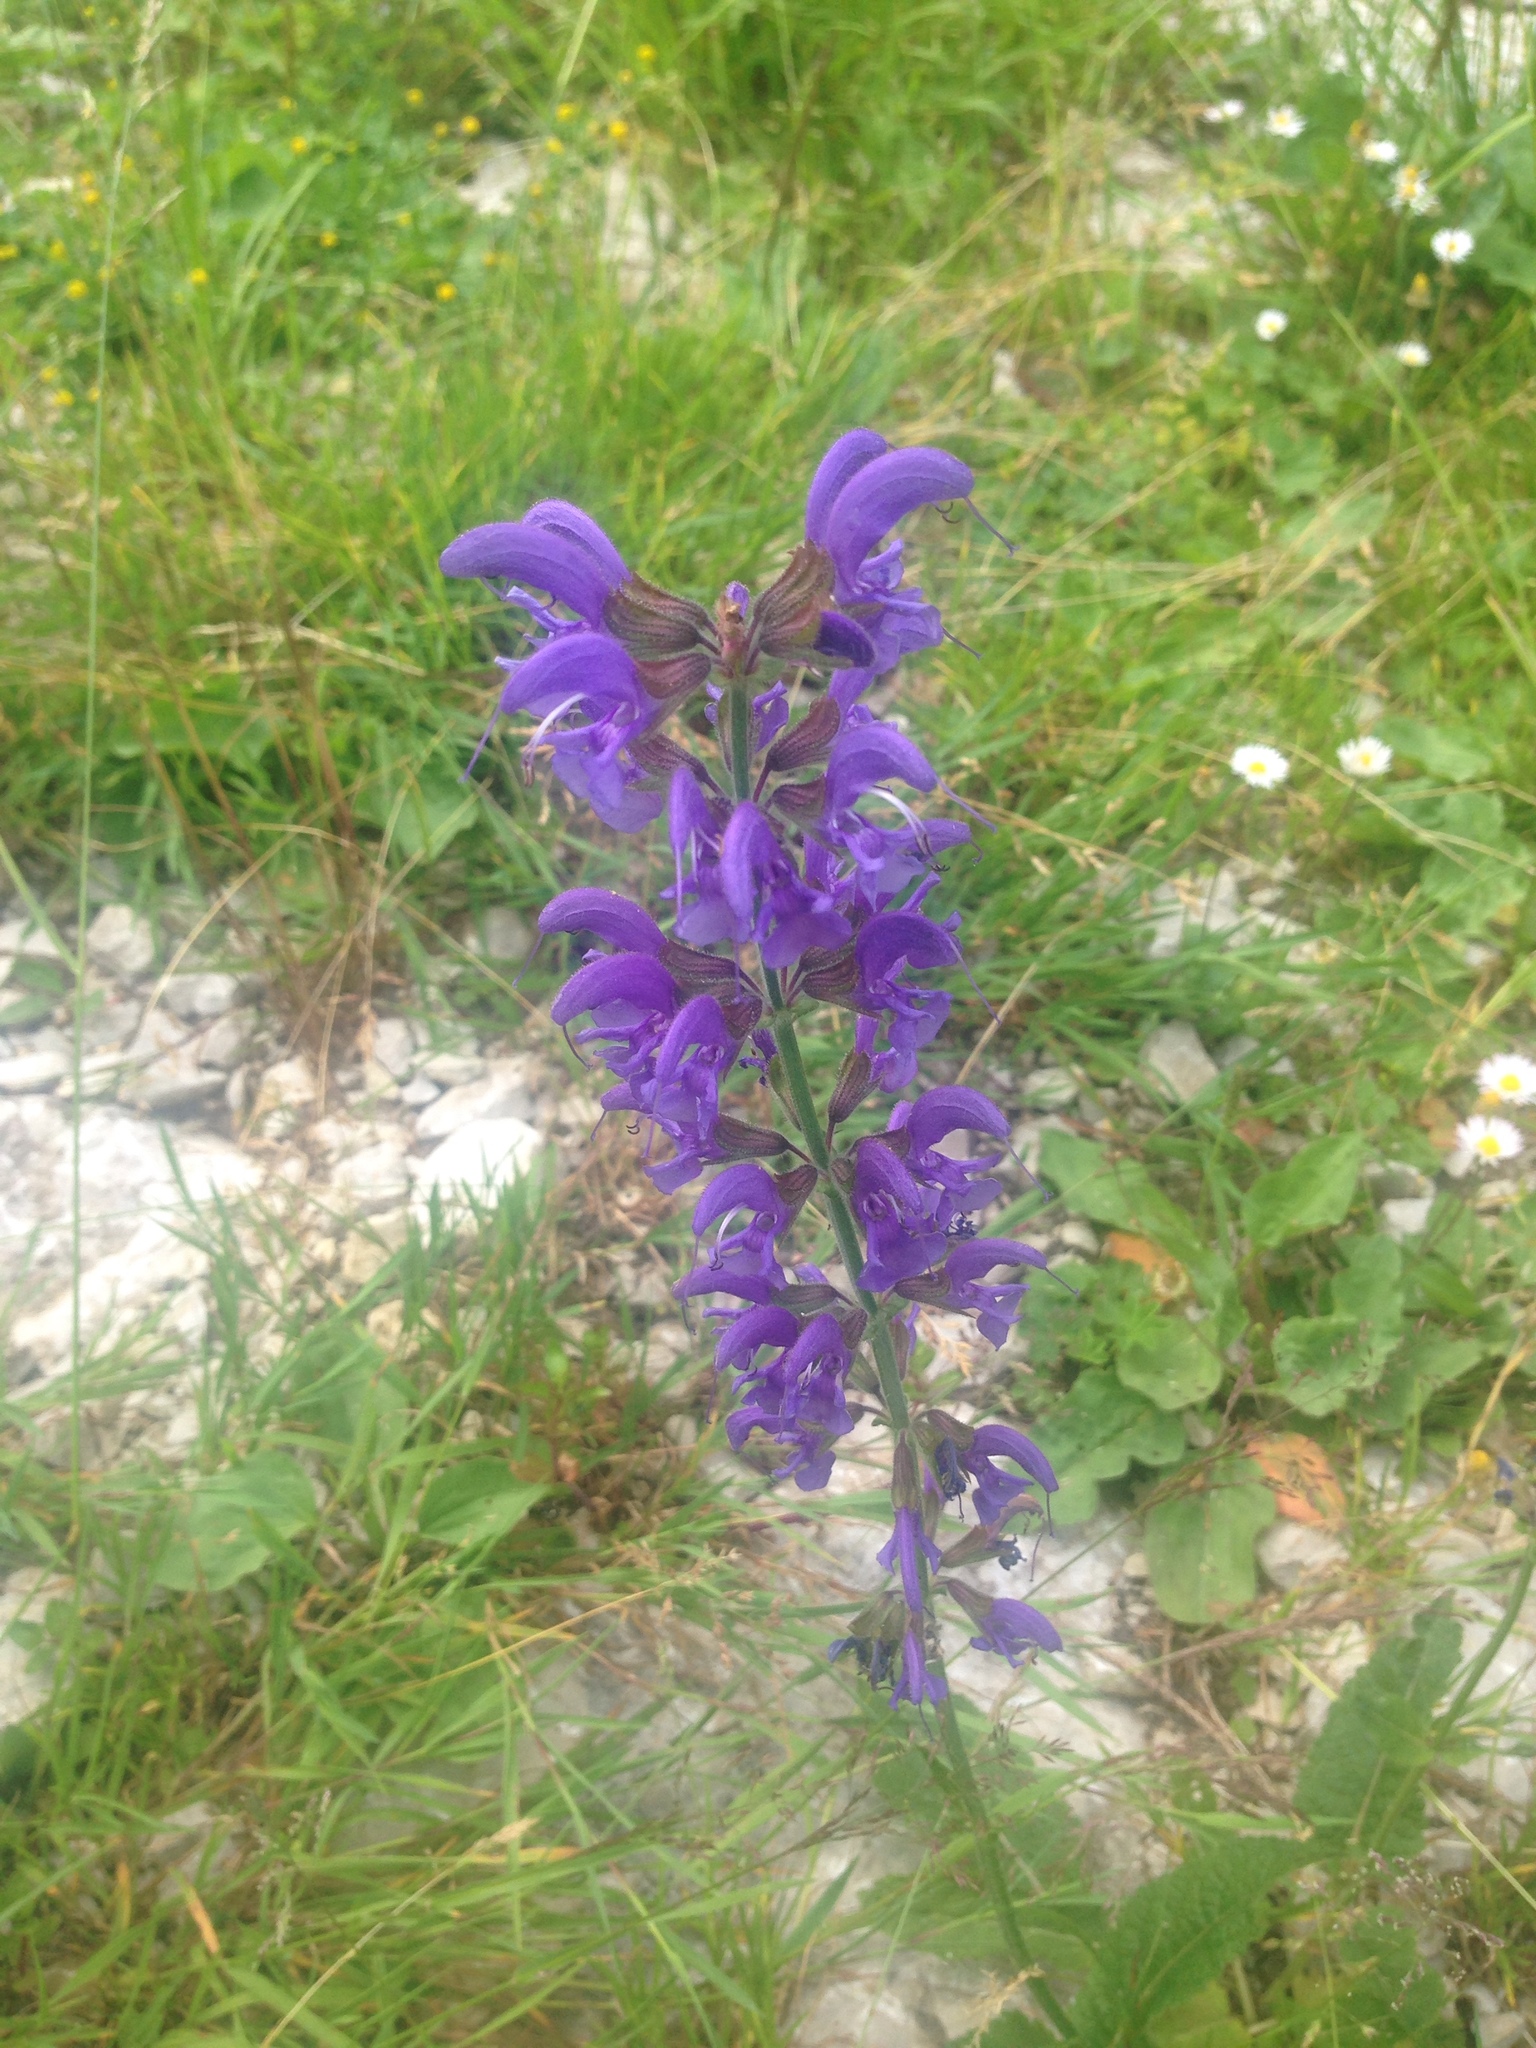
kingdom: Plantae
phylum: Tracheophyta
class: Magnoliopsida
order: Lamiales
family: Lamiaceae
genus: Salvia
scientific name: Salvia pratensis
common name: Meadow sage
